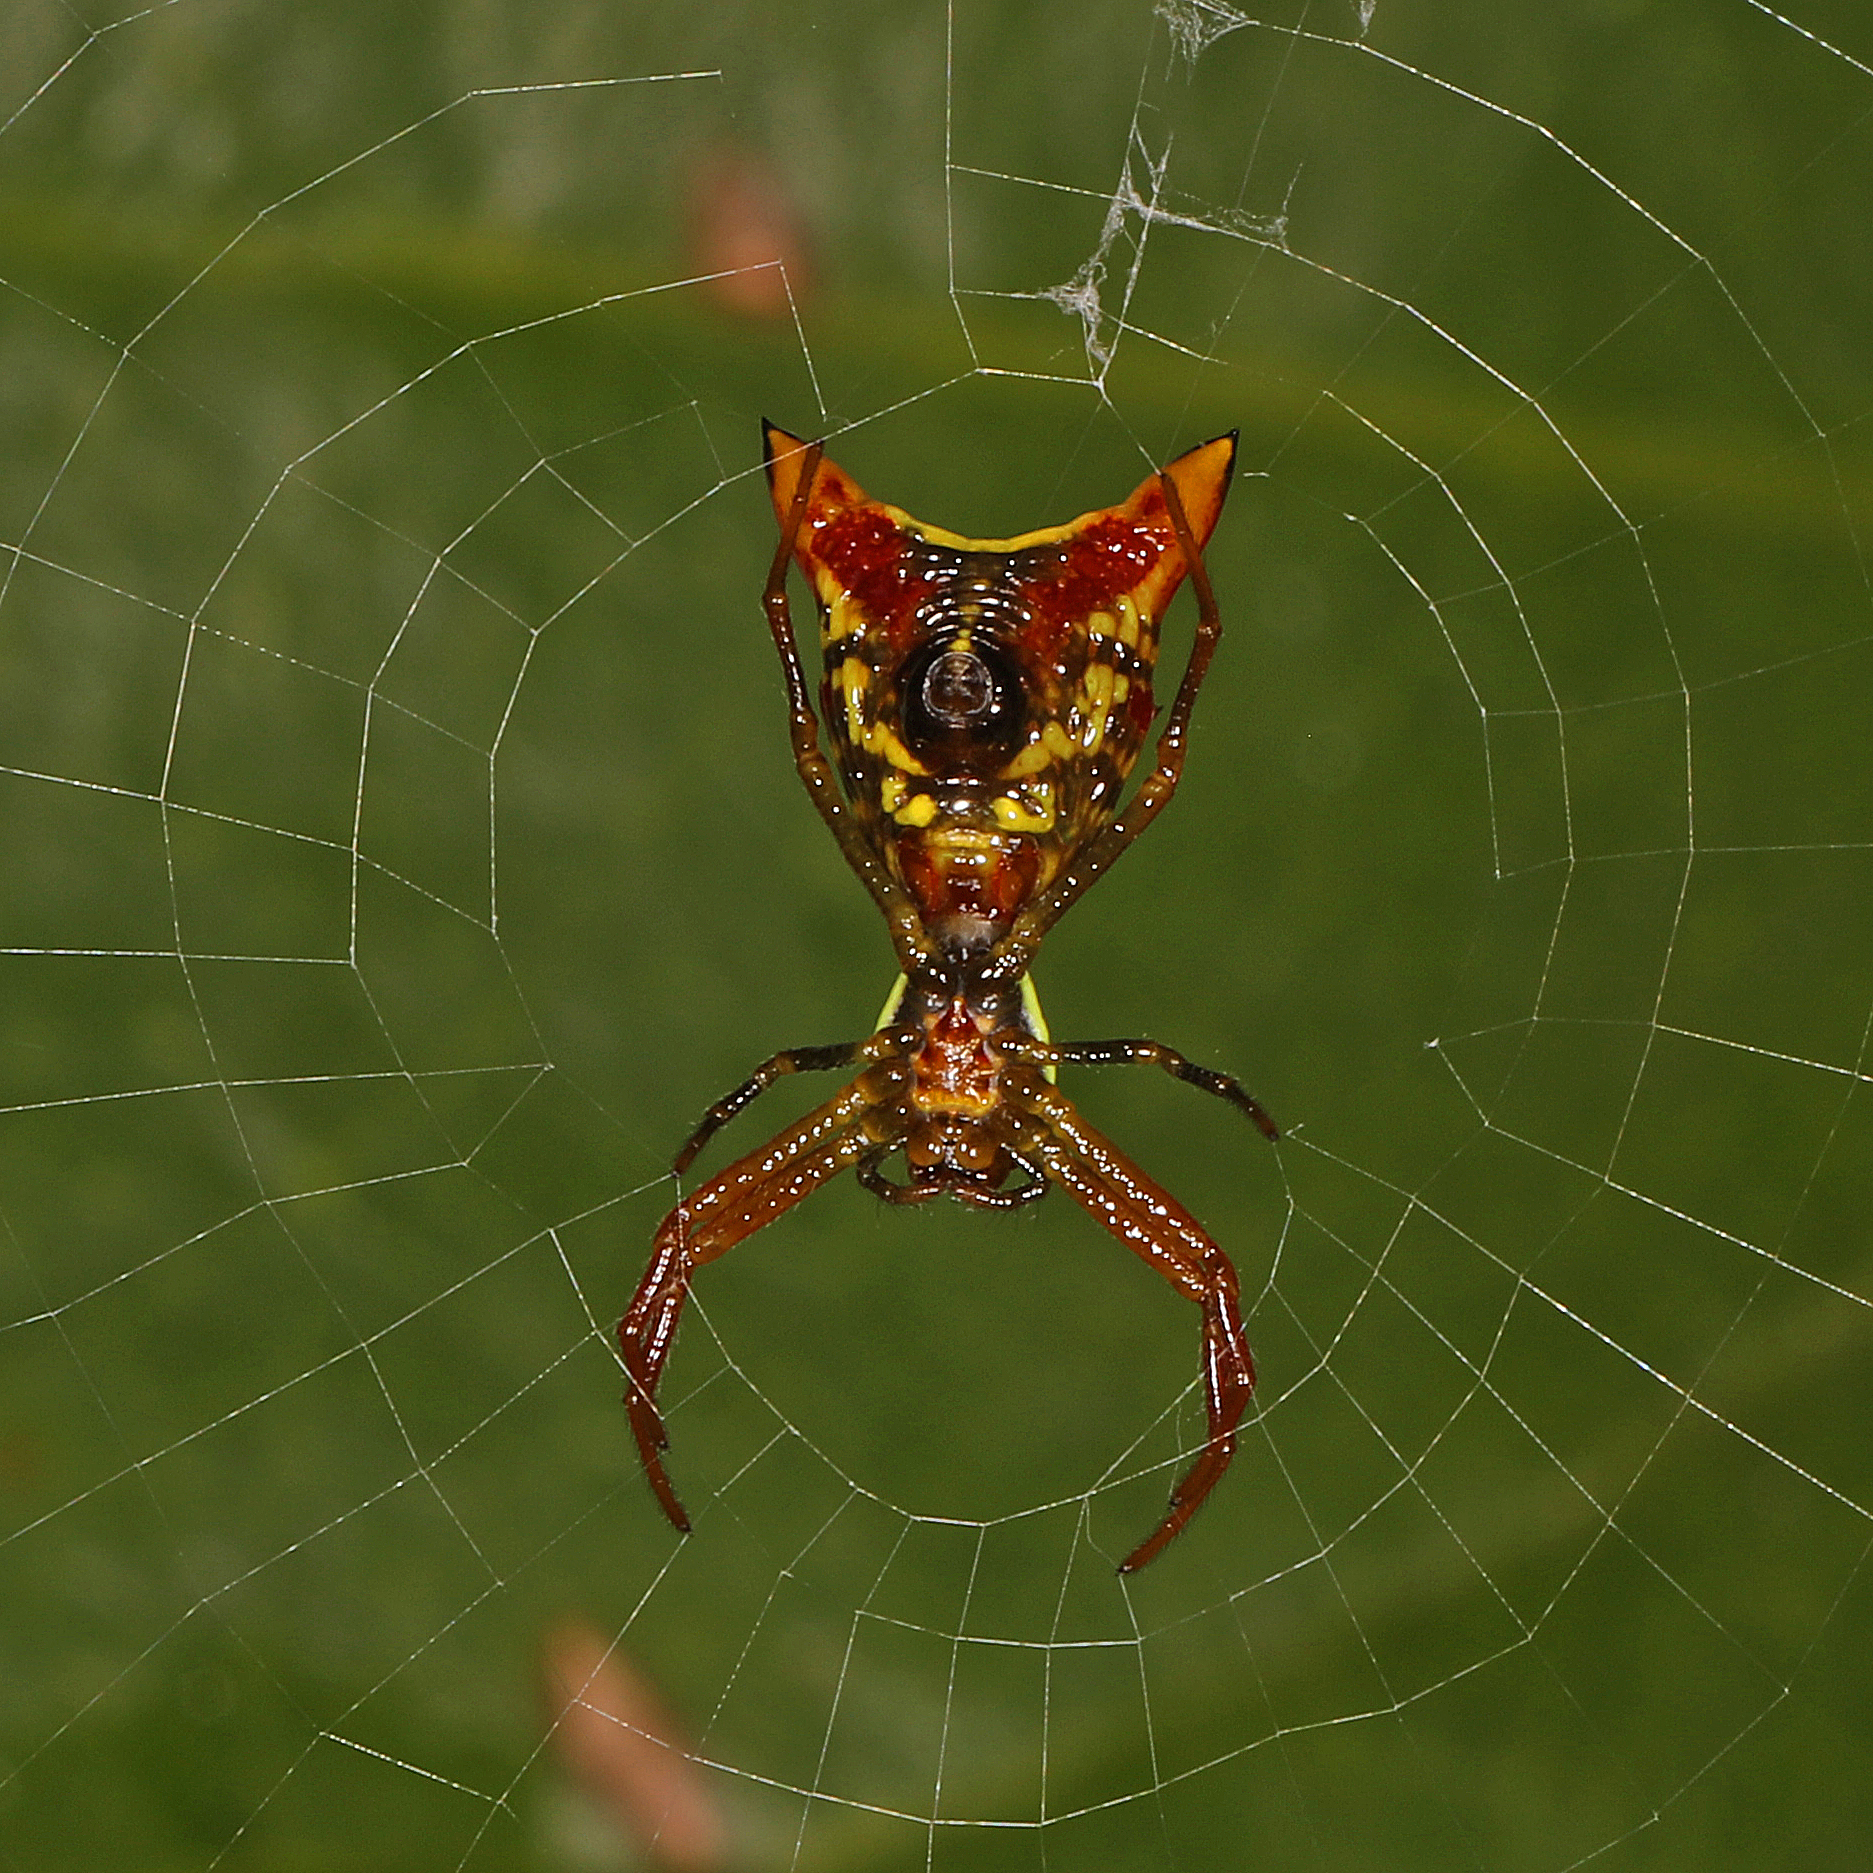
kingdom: Animalia
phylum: Arthropoda
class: Arachnida
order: Araneae
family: Araneidae
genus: Micrathena
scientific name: Micrathena sagittata
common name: Orb weavers
